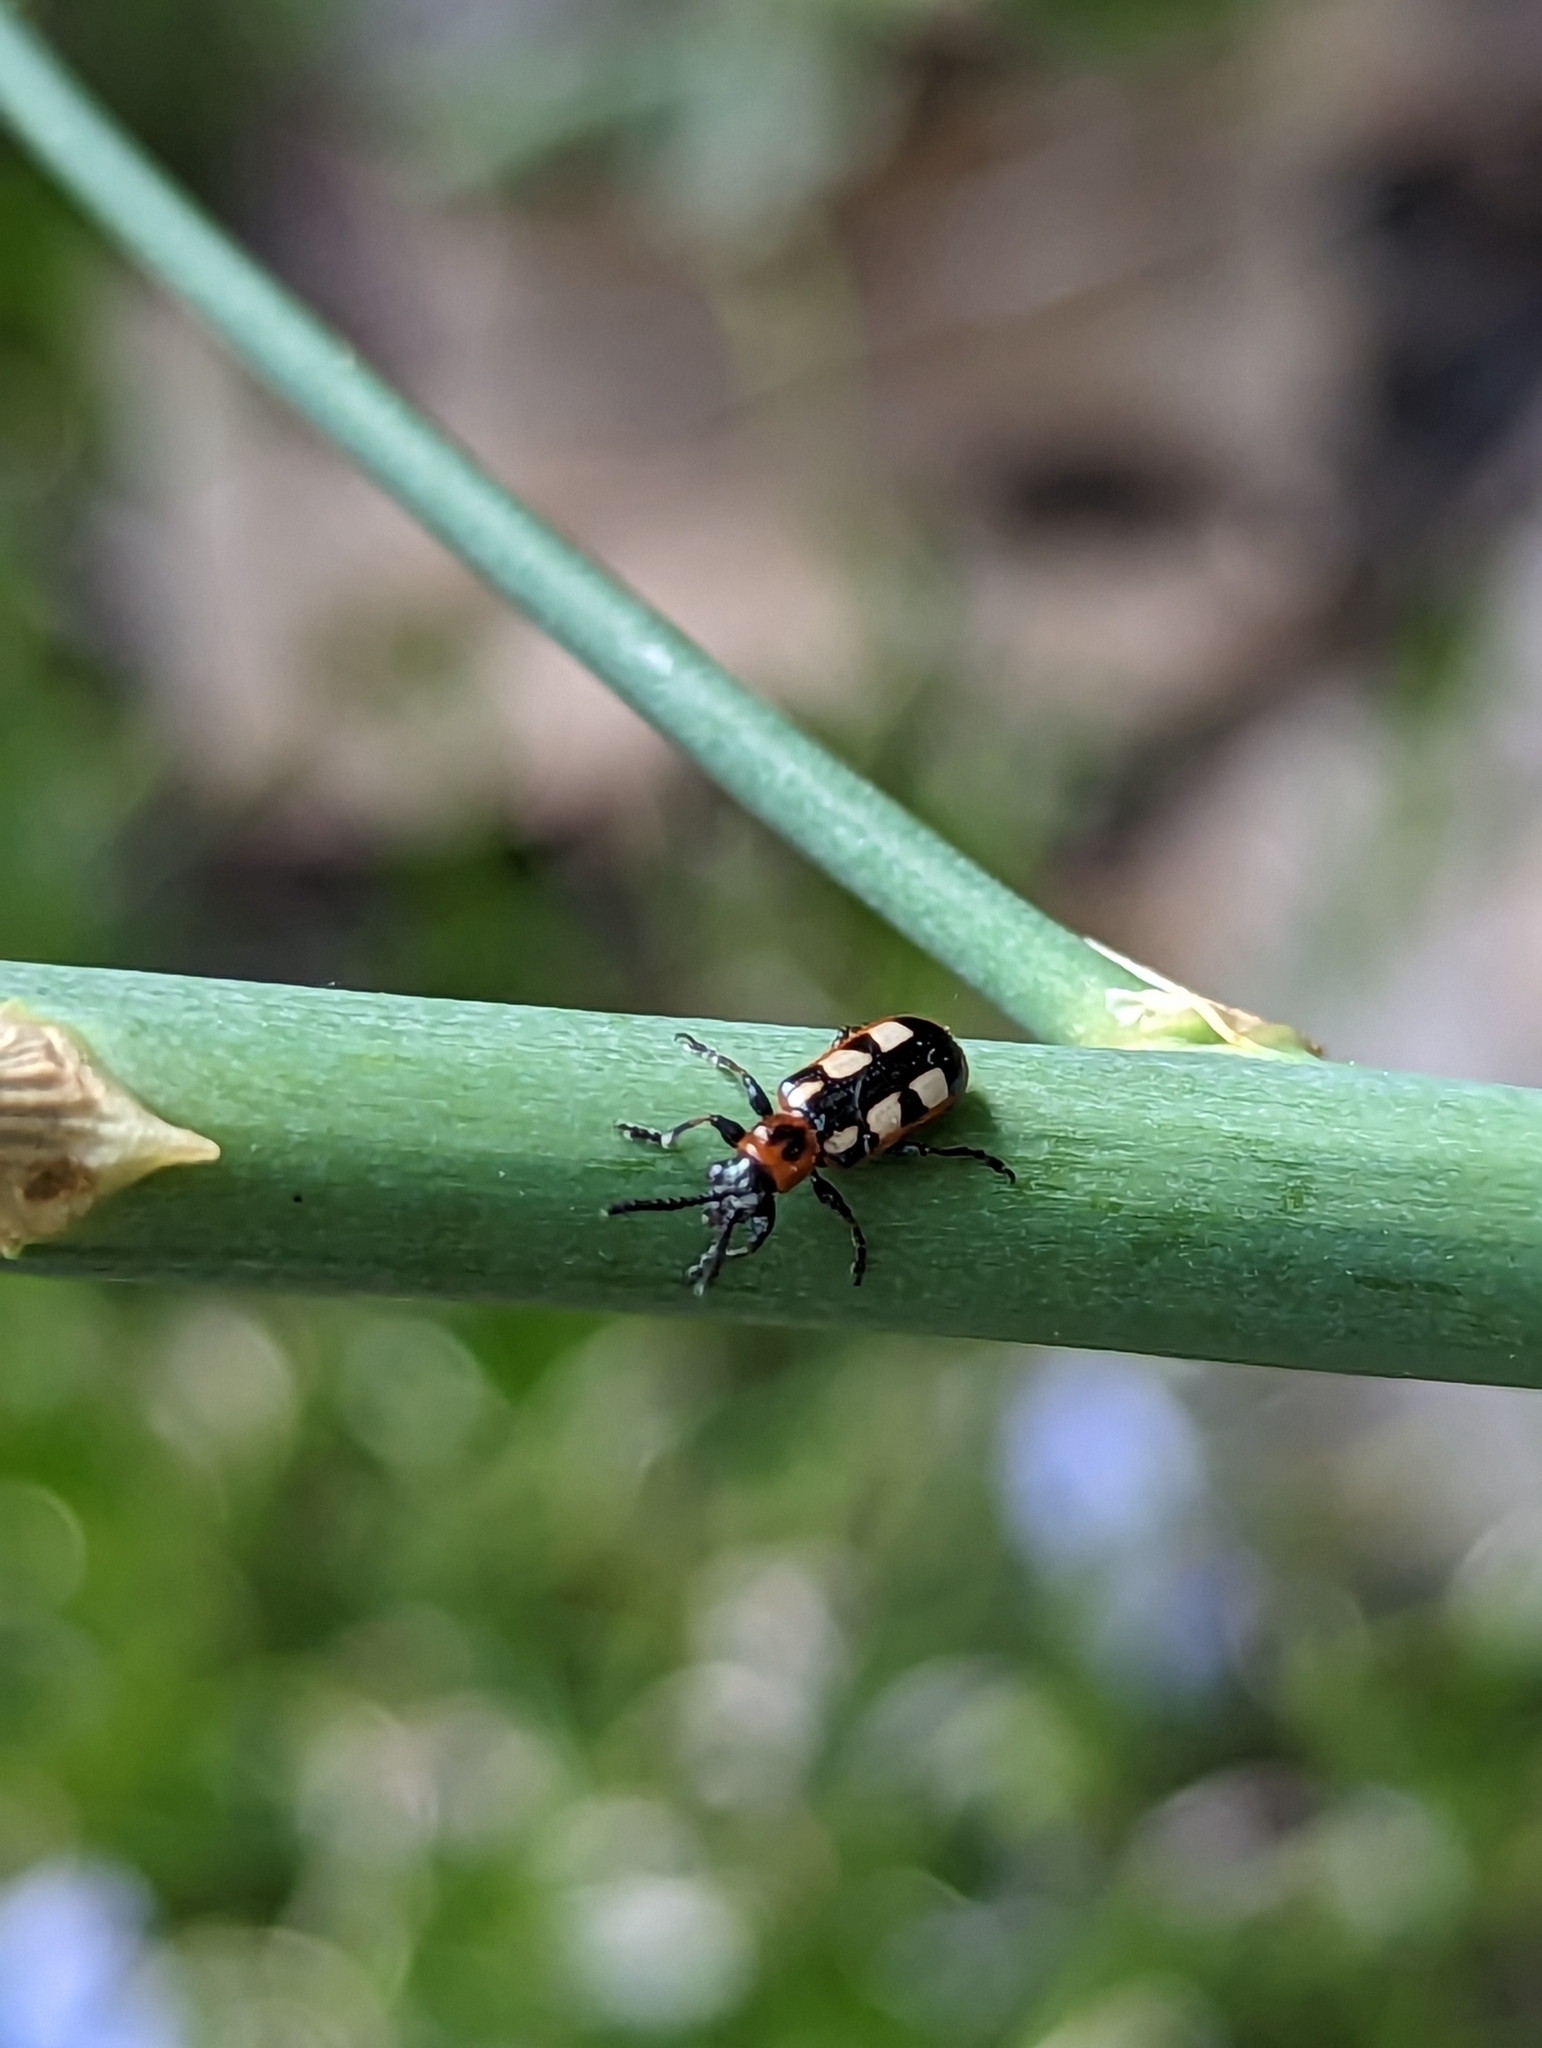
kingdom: Animalia
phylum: Arthropoda
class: Insecta
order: Coleoptera
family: Chrysomelidae
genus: Crioceris
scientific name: Crioceris asparagi
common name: Asparagus beetle
